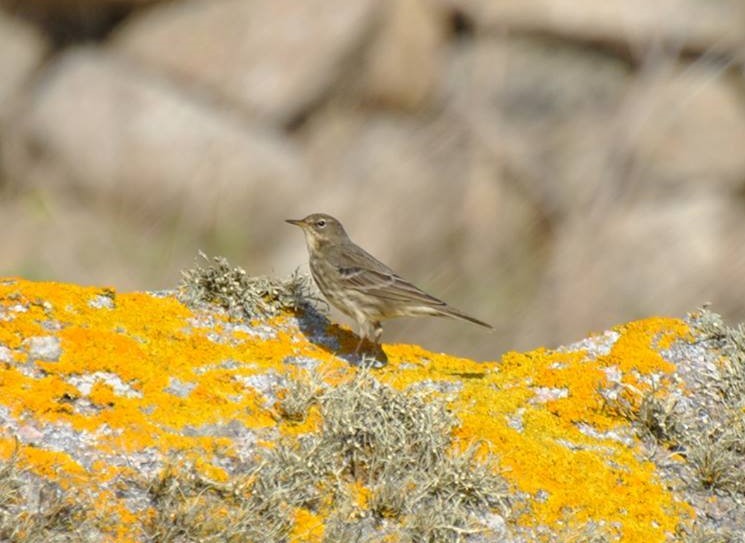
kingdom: Animalia
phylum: Chordata
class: Aves
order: Passeriformes
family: Motacillidae
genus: Anthus
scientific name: Anthus petrosus
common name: Eurasian rock pipit
